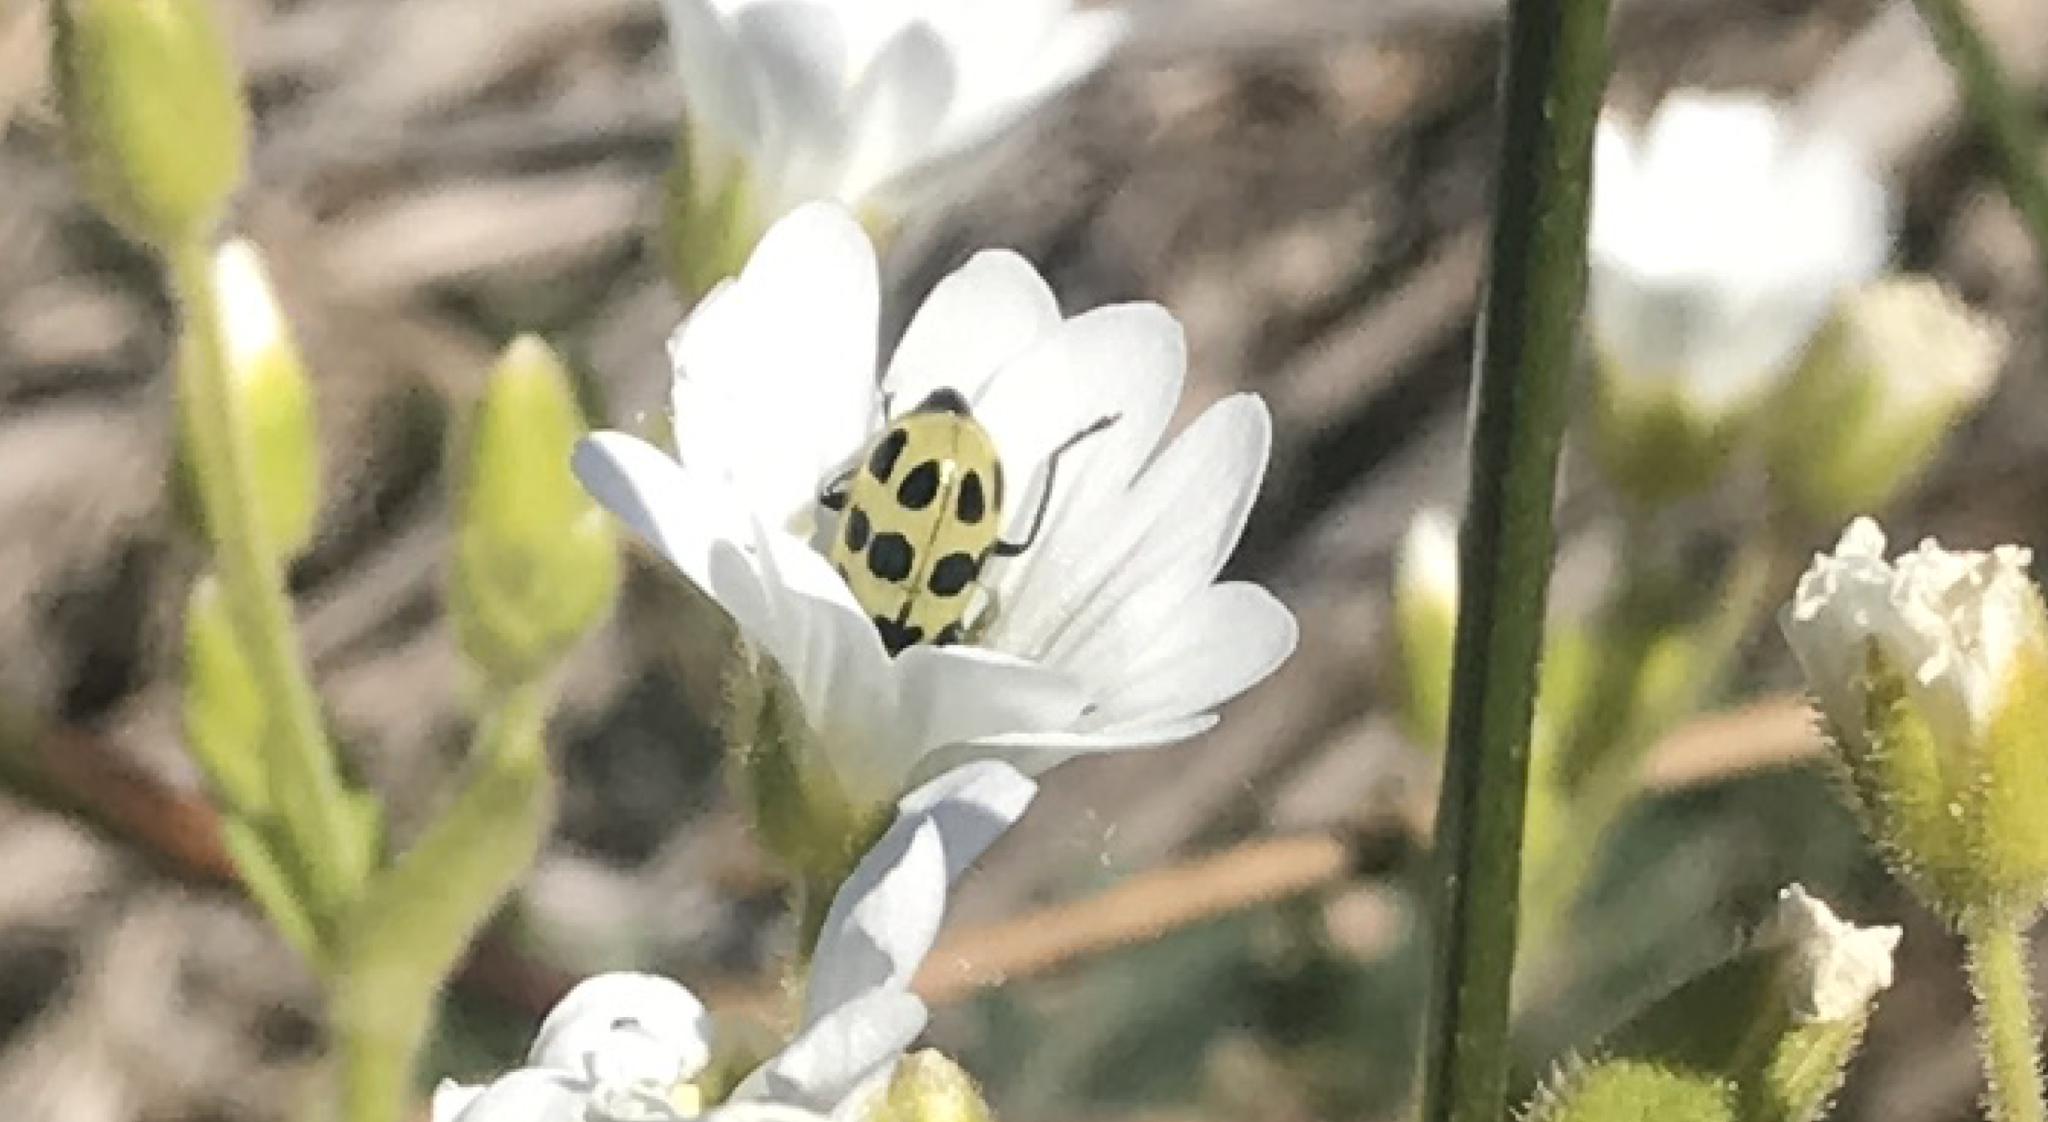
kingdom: Animalia
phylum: Arthropoda
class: Insecta
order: Coleoptera
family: Chrysomelidae
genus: Diabrotica
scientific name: Diabrotica undecimpunctata
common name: Spotted cucumber beetle
